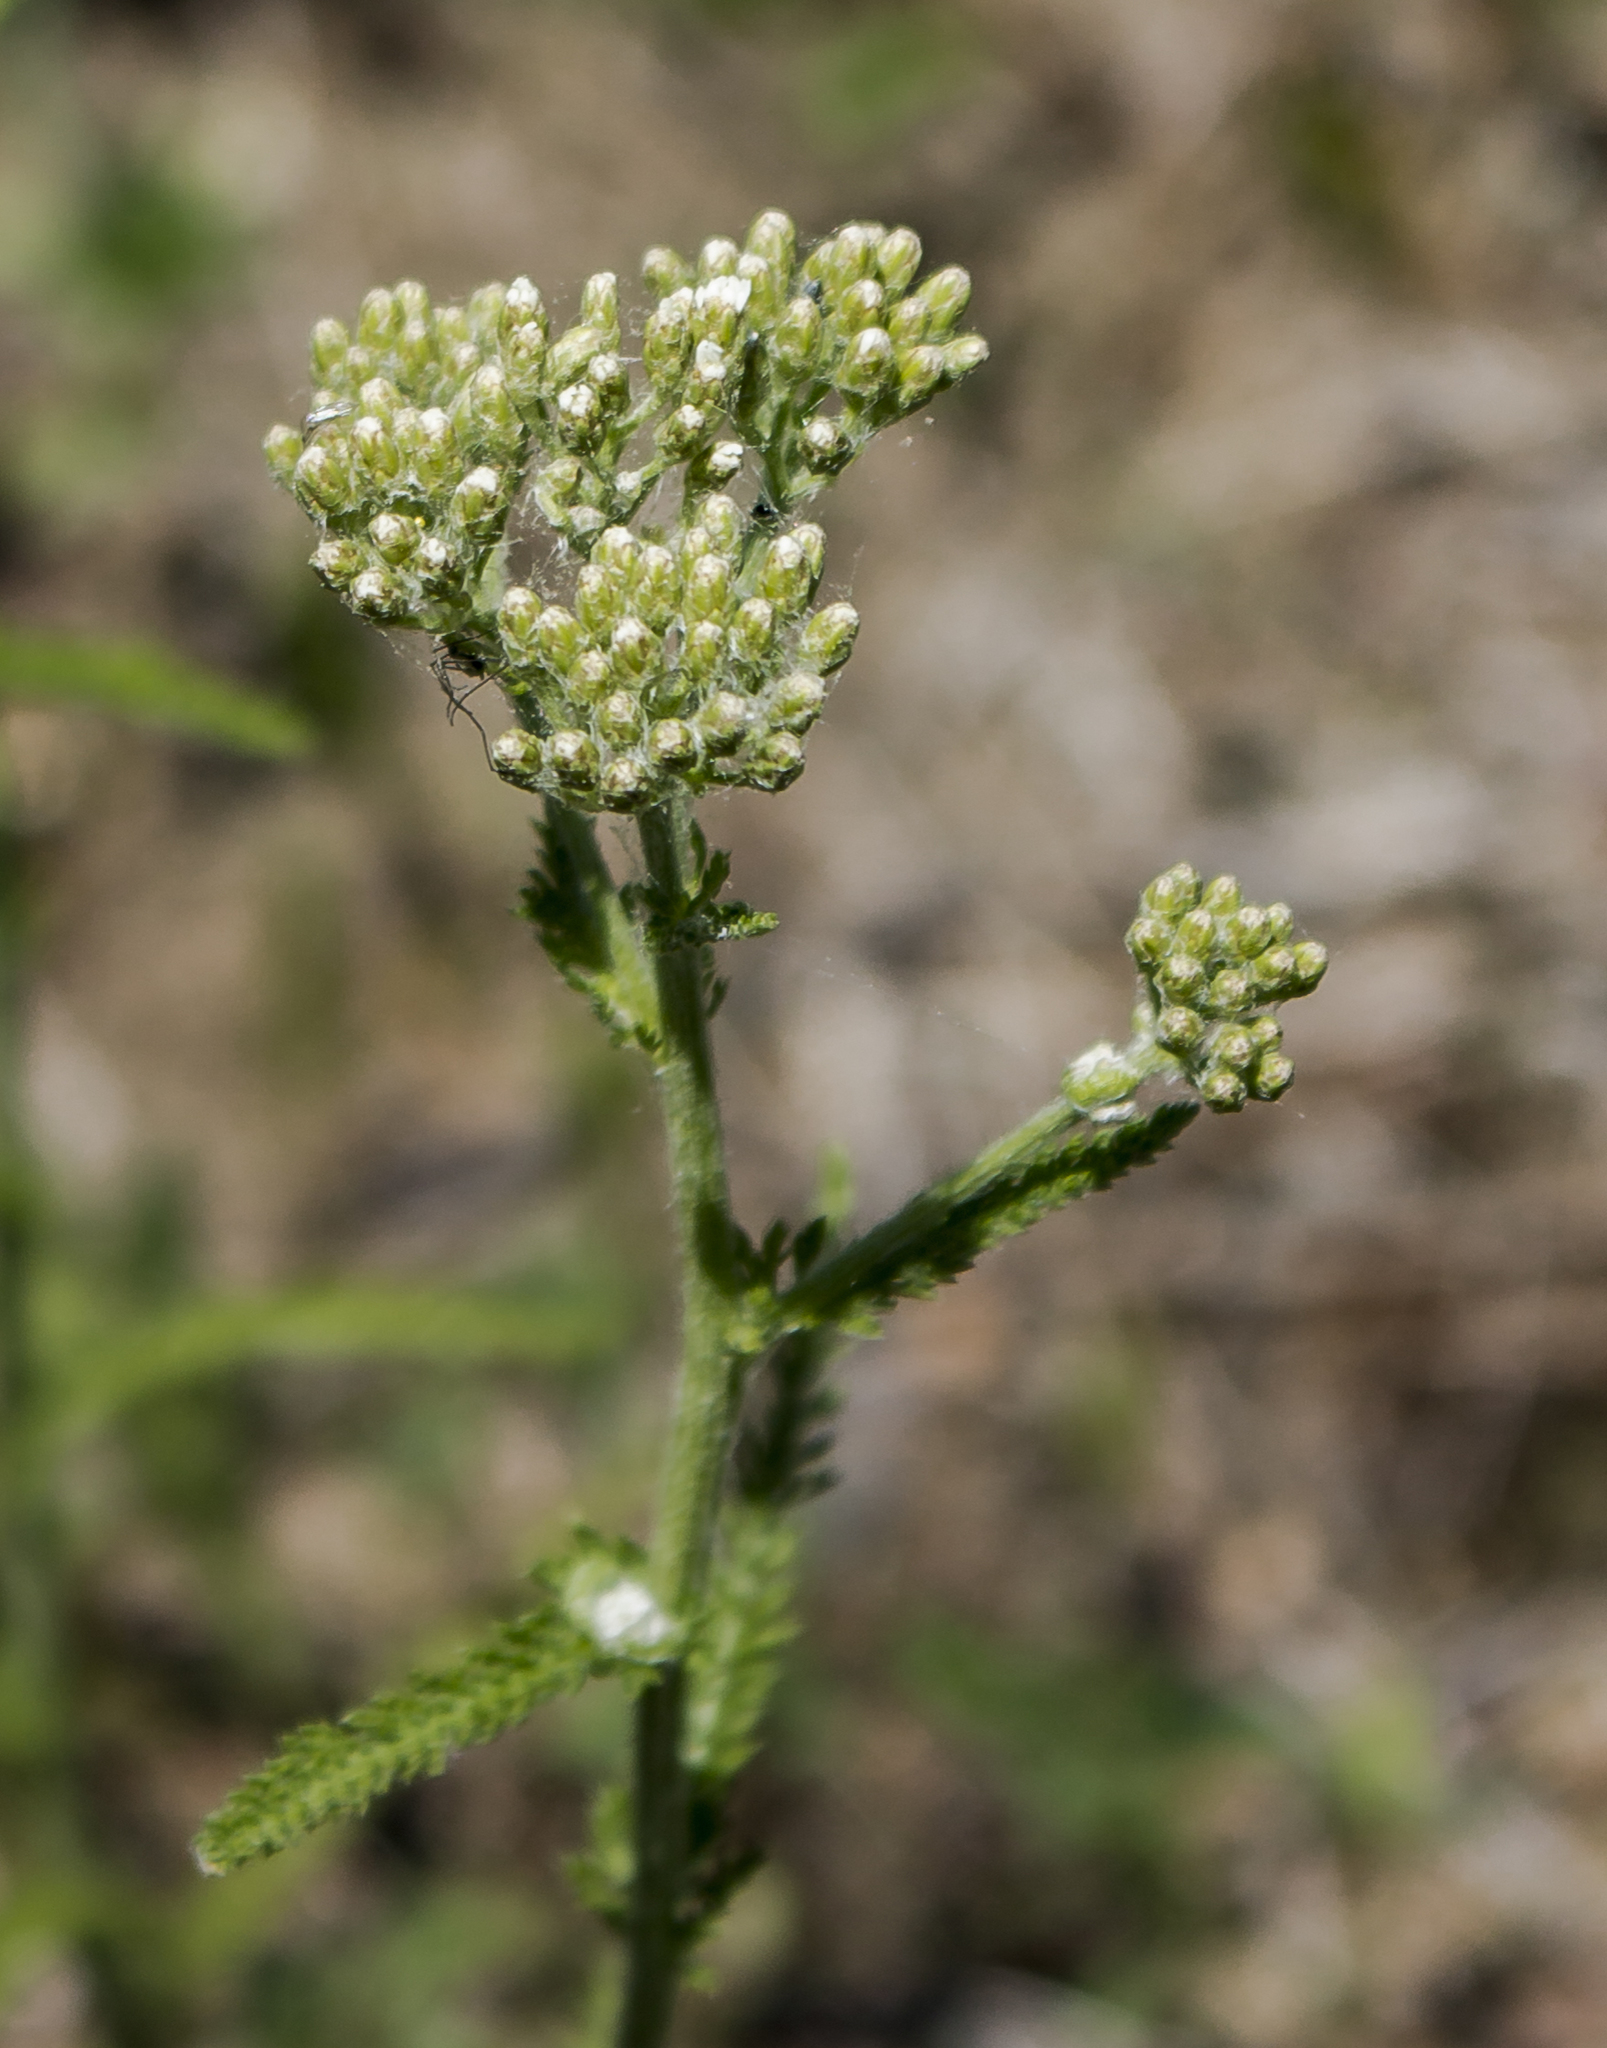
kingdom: Plantae
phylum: Tracheophyta
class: Magnoliopsida
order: Asterales
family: Asteraceae
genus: Achillea
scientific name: Achillea millefolium
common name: Yarrow
